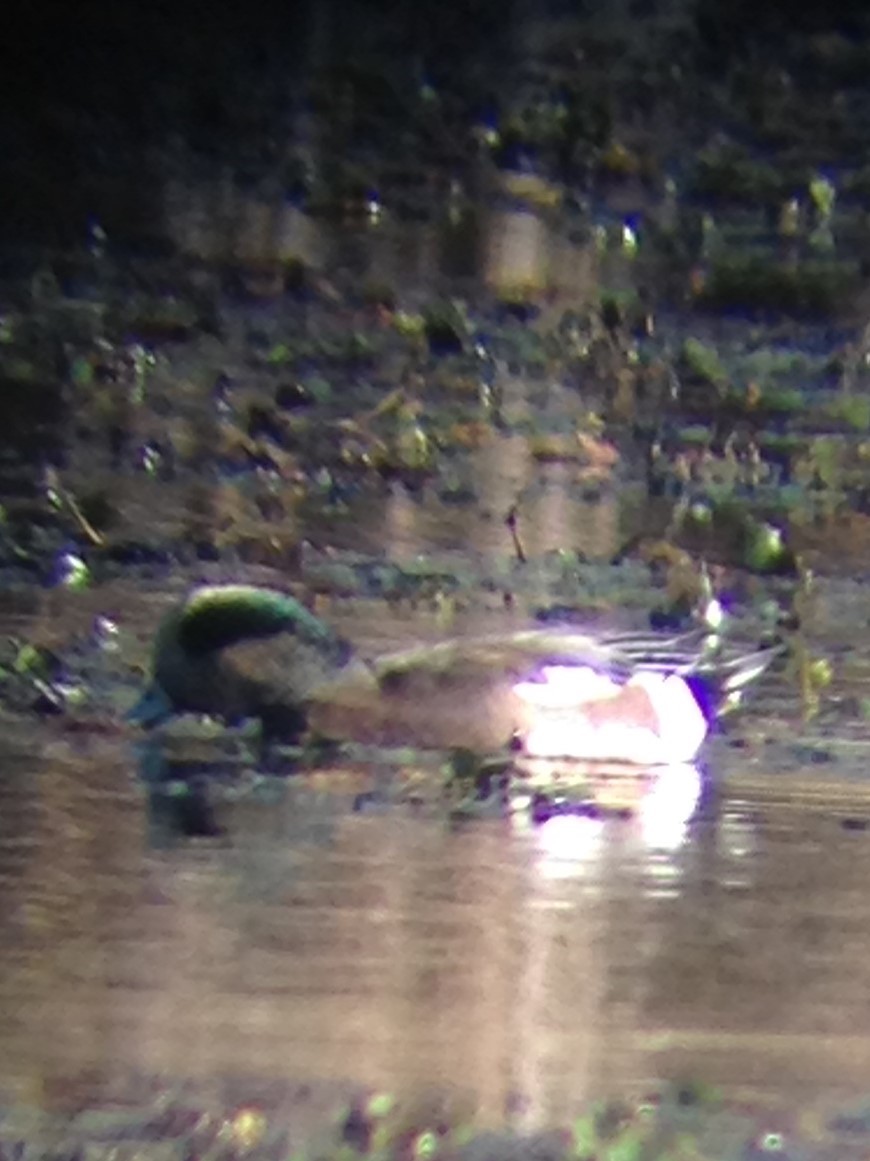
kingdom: Animalia
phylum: Chordata
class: Aves
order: Anseriformes
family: Anatidae
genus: Mareca
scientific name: Mareca americana
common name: American wigeon
